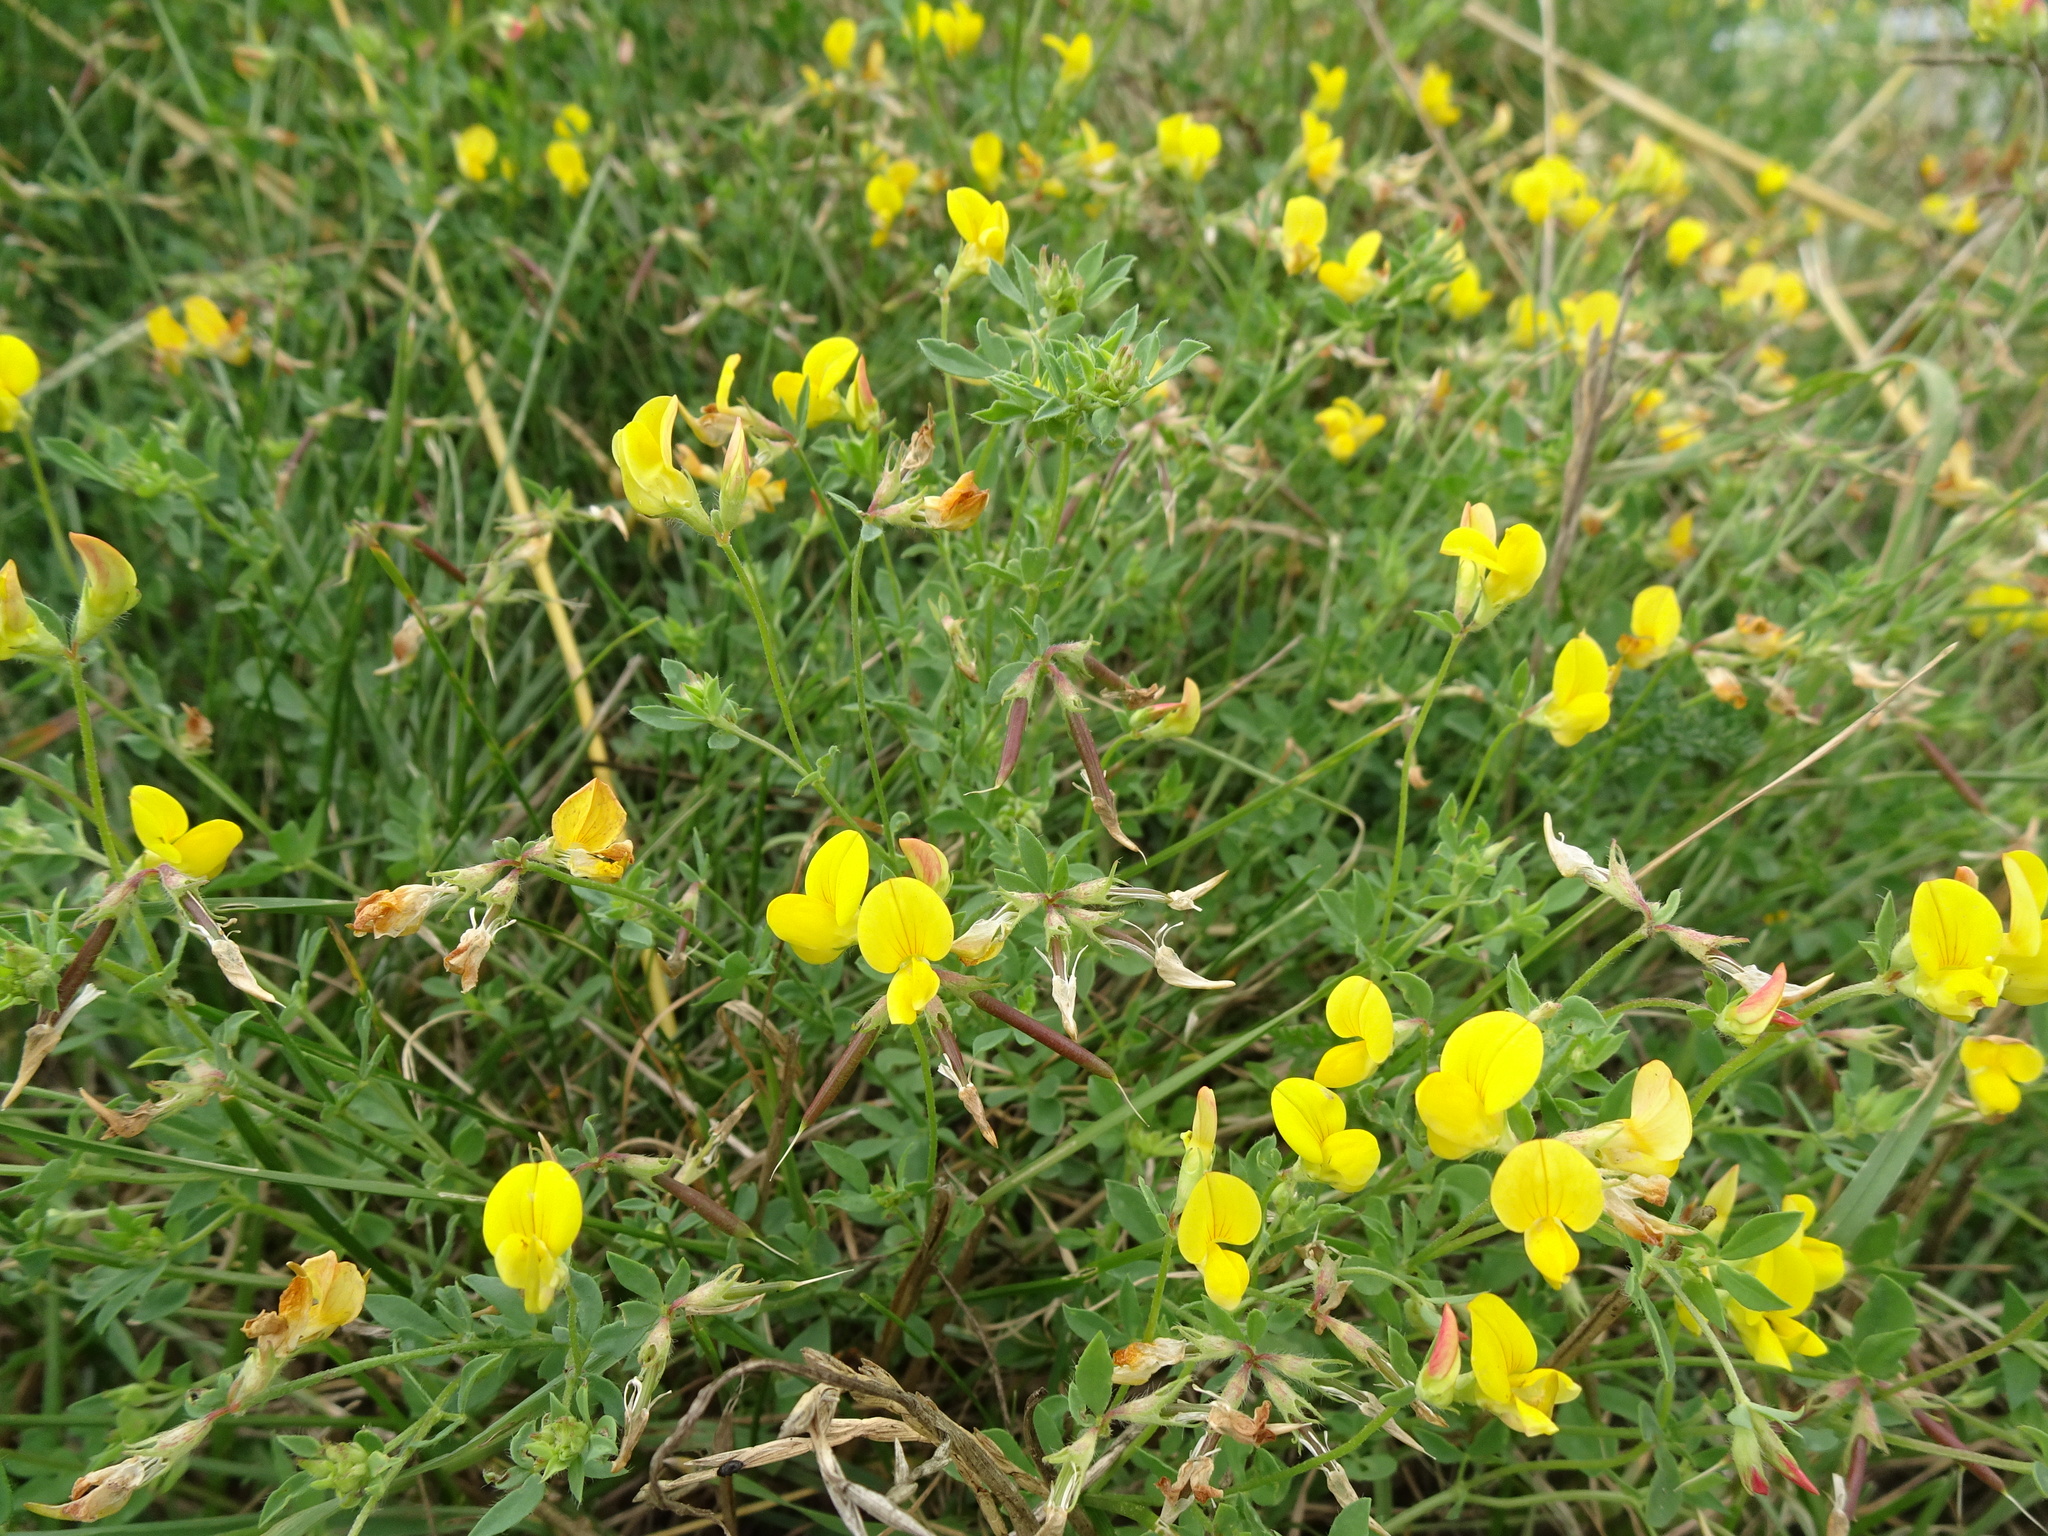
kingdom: Plantae
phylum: Tracheophyta
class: Magnoliopsida
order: Fabales
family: Fabaceae
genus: Lotus
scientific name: Lotus corniculatus
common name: Common bird's-foot-trefoil
